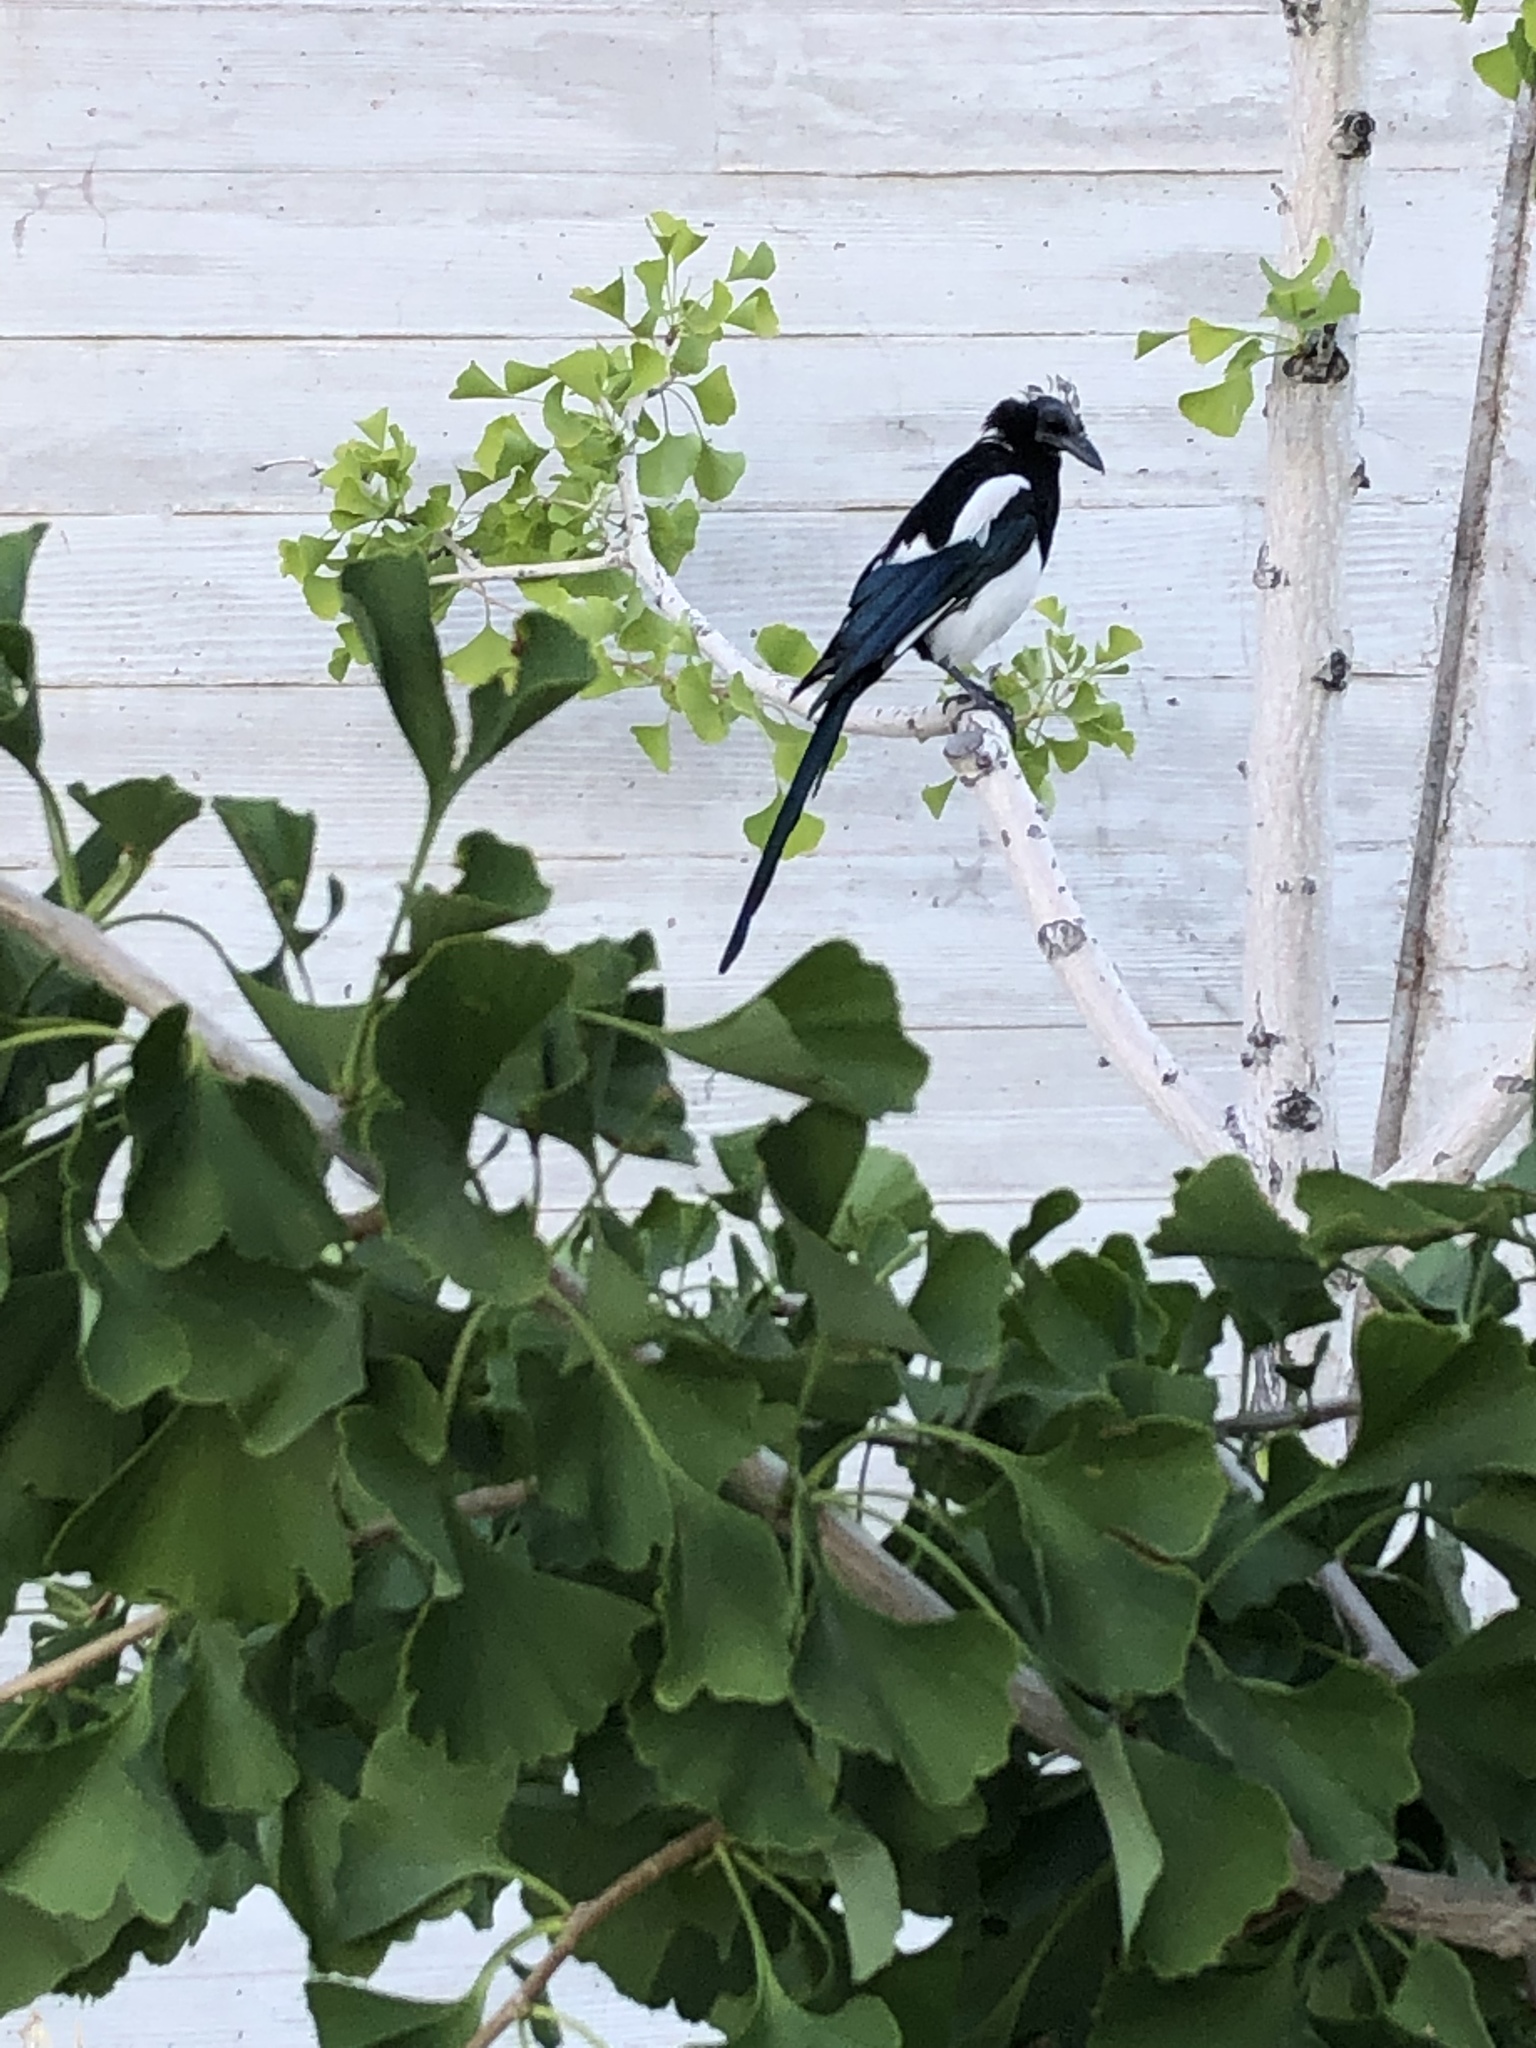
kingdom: Animalia
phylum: Chordata
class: Aves
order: Passeriformes
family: Corvidae
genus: Pica
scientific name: Pica hudsonia
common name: Black-billed magpie
